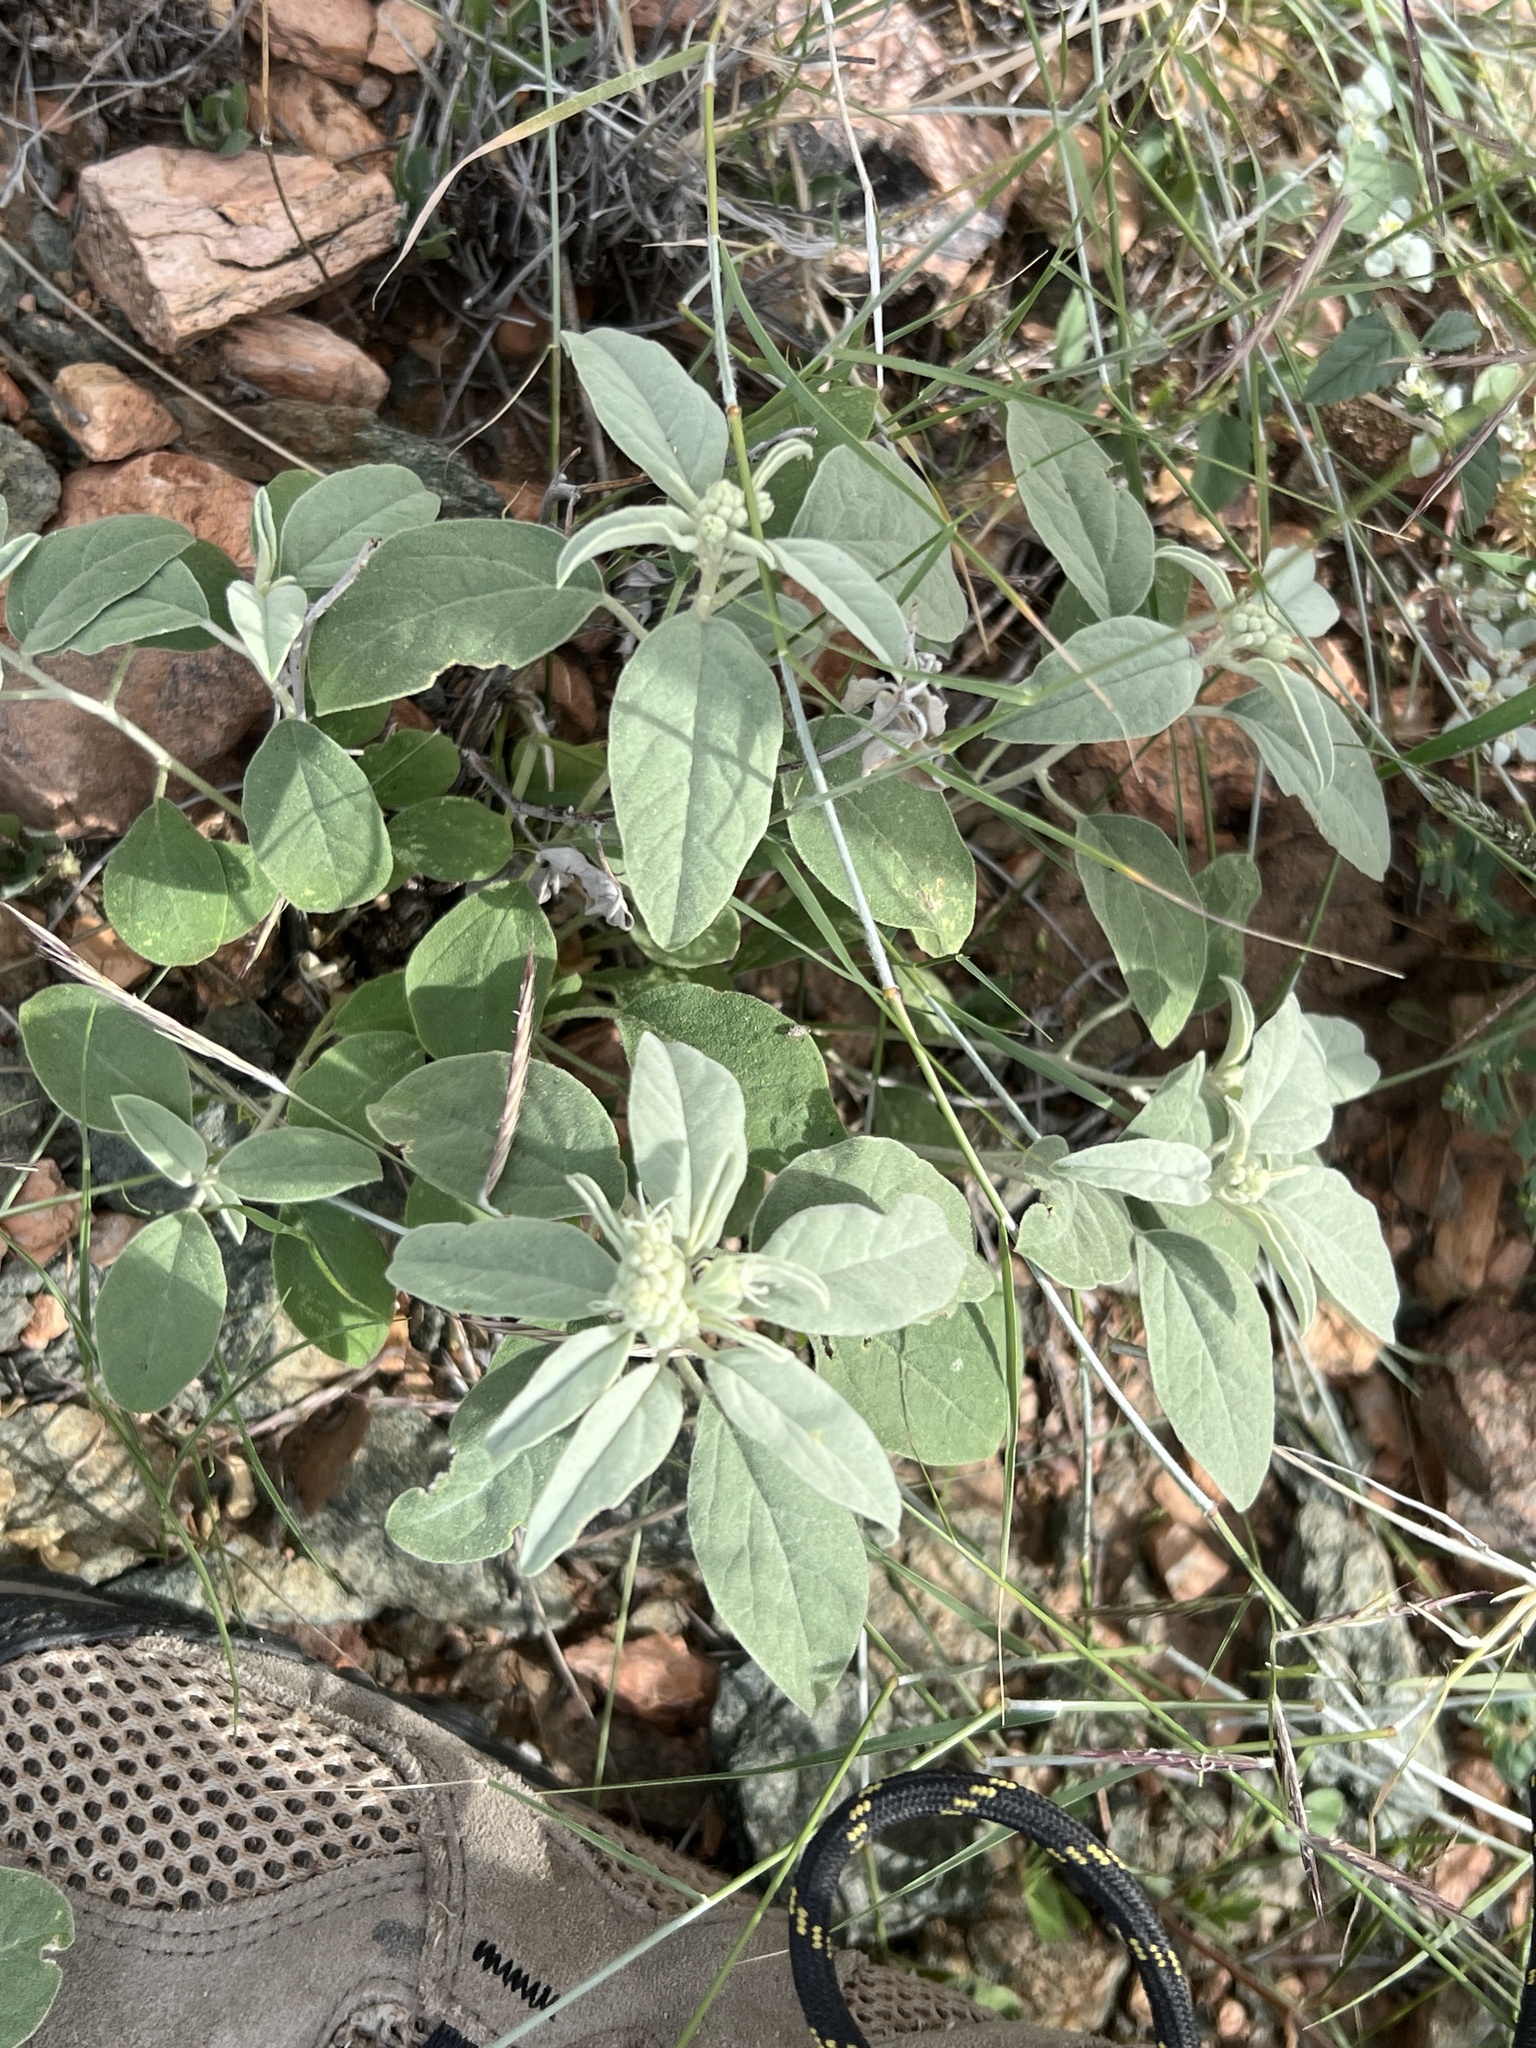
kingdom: Plantae
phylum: Tracheophyta
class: Magnoliopsida
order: Malpighiales
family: Euphorbiaceae
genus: Croton
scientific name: Croton pottsii
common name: Leatherweed
